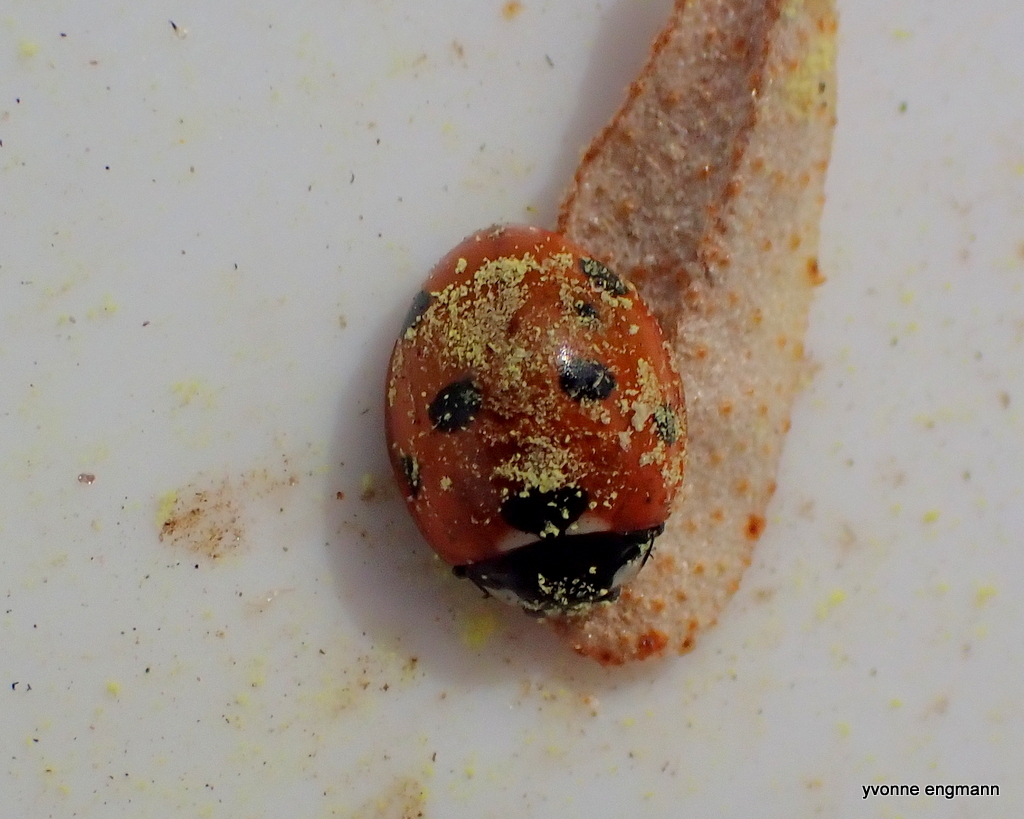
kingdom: Animalia
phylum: Arthropoda
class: Insecta
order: Coleoptera
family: Coccinellidae
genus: Coccinella
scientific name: Coccinella septempunctata
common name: Sevenspotted lady beetle
